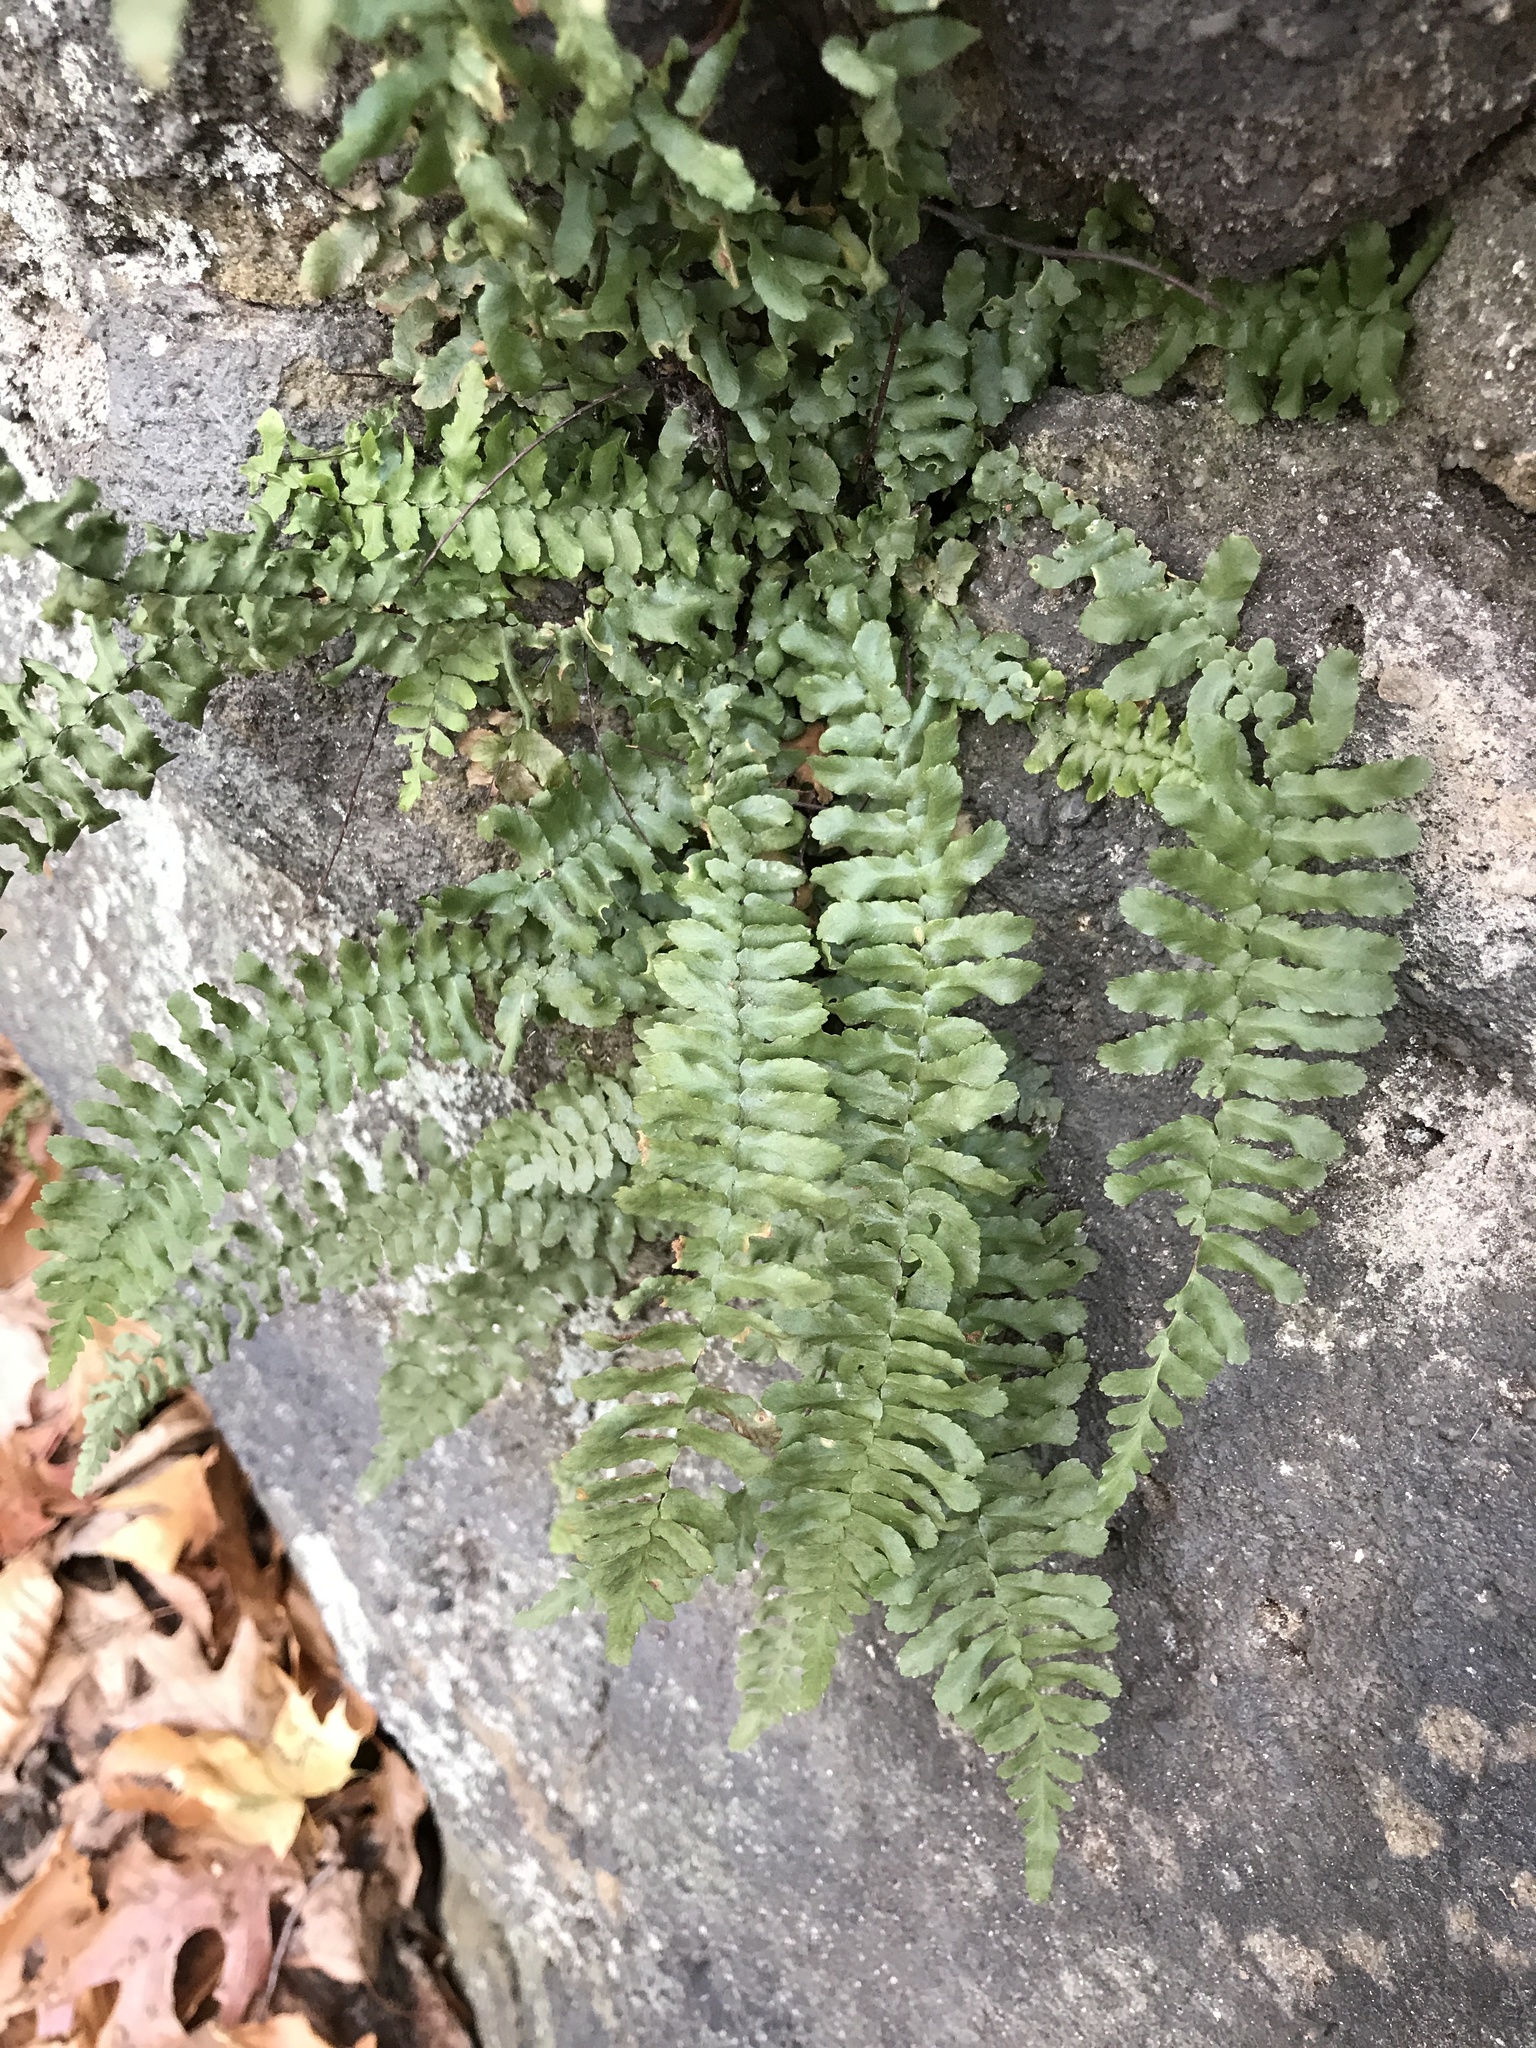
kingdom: Plantae
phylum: Tracheophyta
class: Polypodiopsida
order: Polypodiales
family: Aspleniaceae
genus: Asplenium
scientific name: Asplenium platyneuron
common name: Ebony spleenwort
